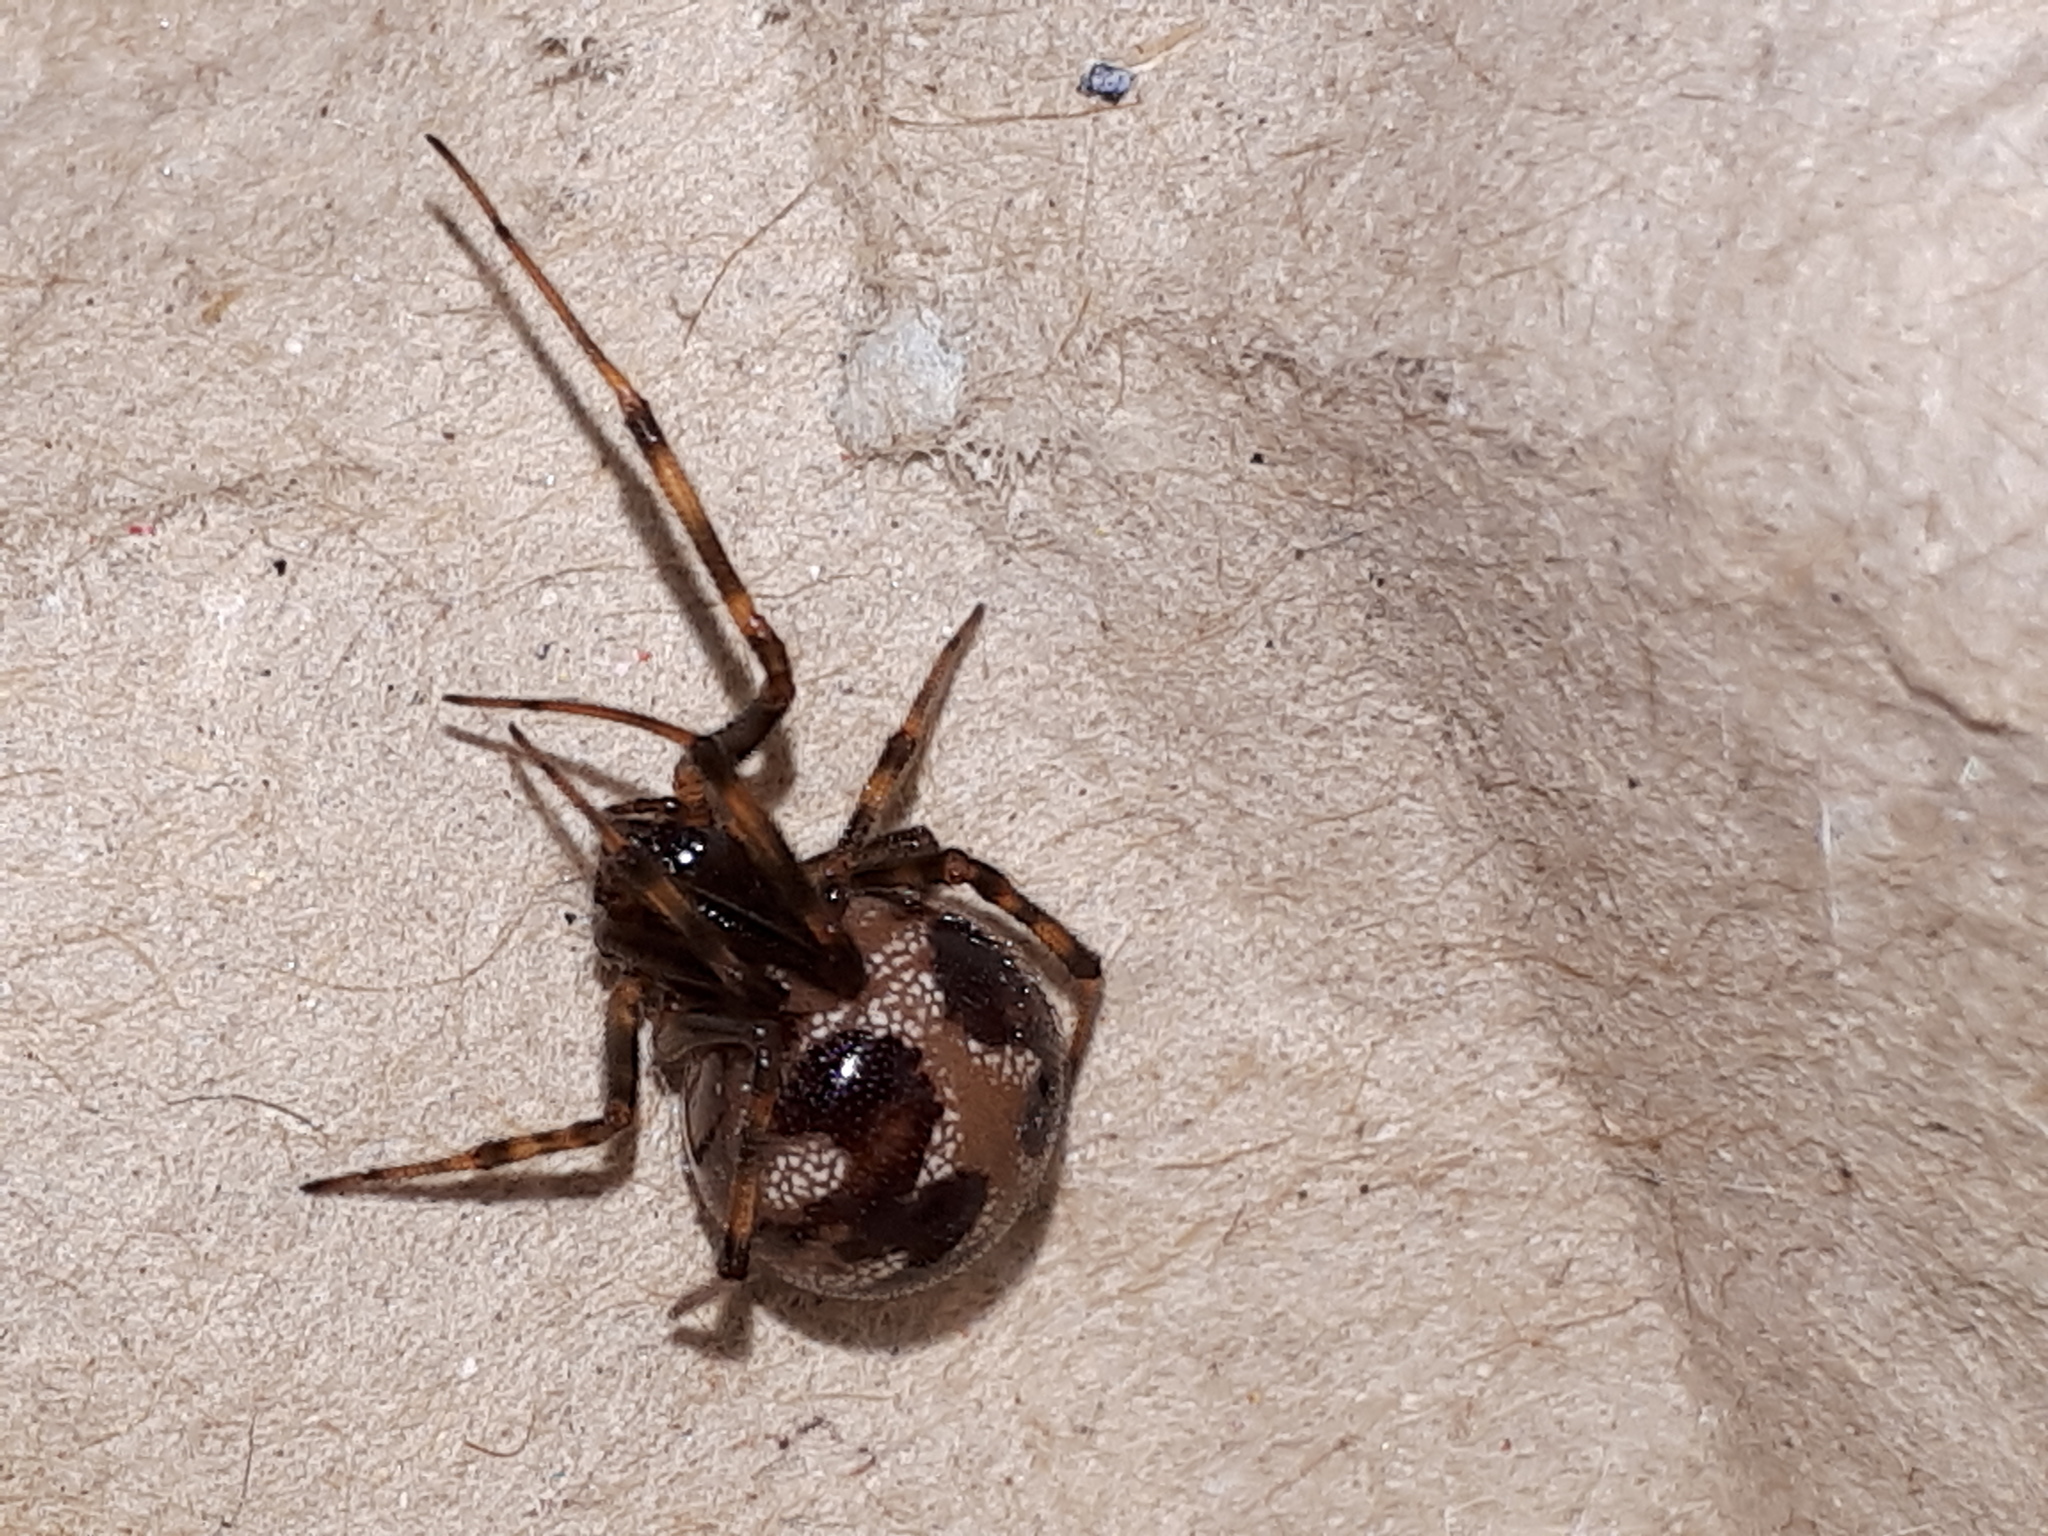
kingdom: Animalia
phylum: Arthropoda
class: Arachnida
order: Araneae
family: Theridiidae
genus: Steatoda
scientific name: Steatoda triangulosa
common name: Triangulate bud spider
